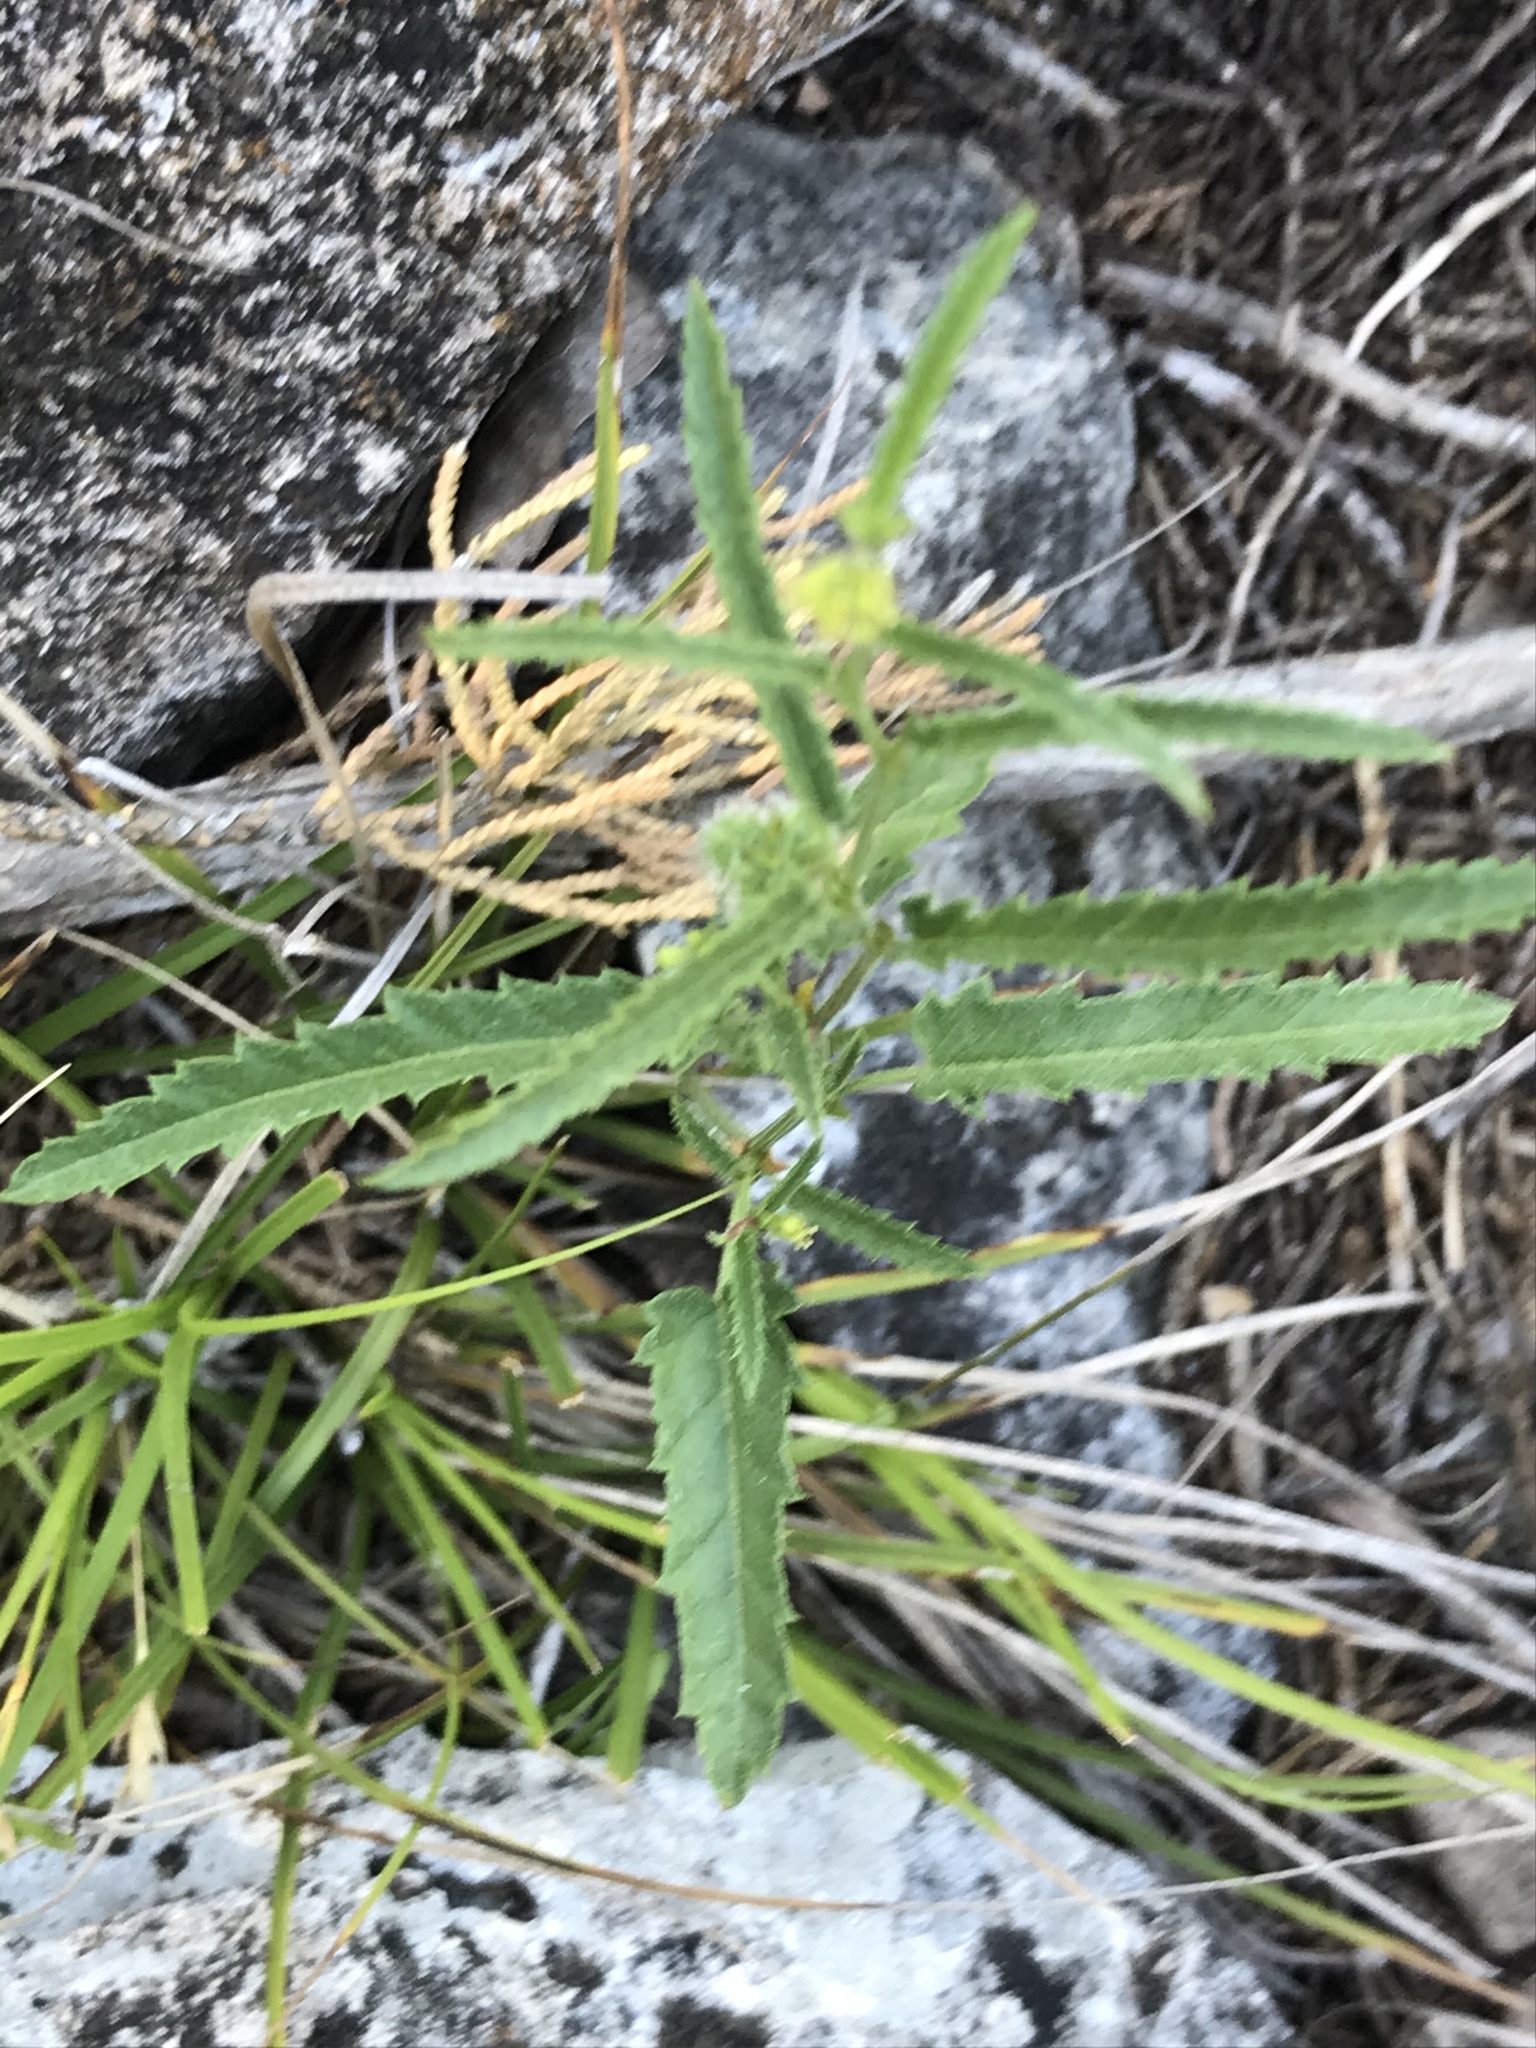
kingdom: Plantae
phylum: Tracheophyta
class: Magnoliopsida
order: Malpighiales
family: Euphorbiaceae
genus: Tragia
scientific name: Tragia ramosa
